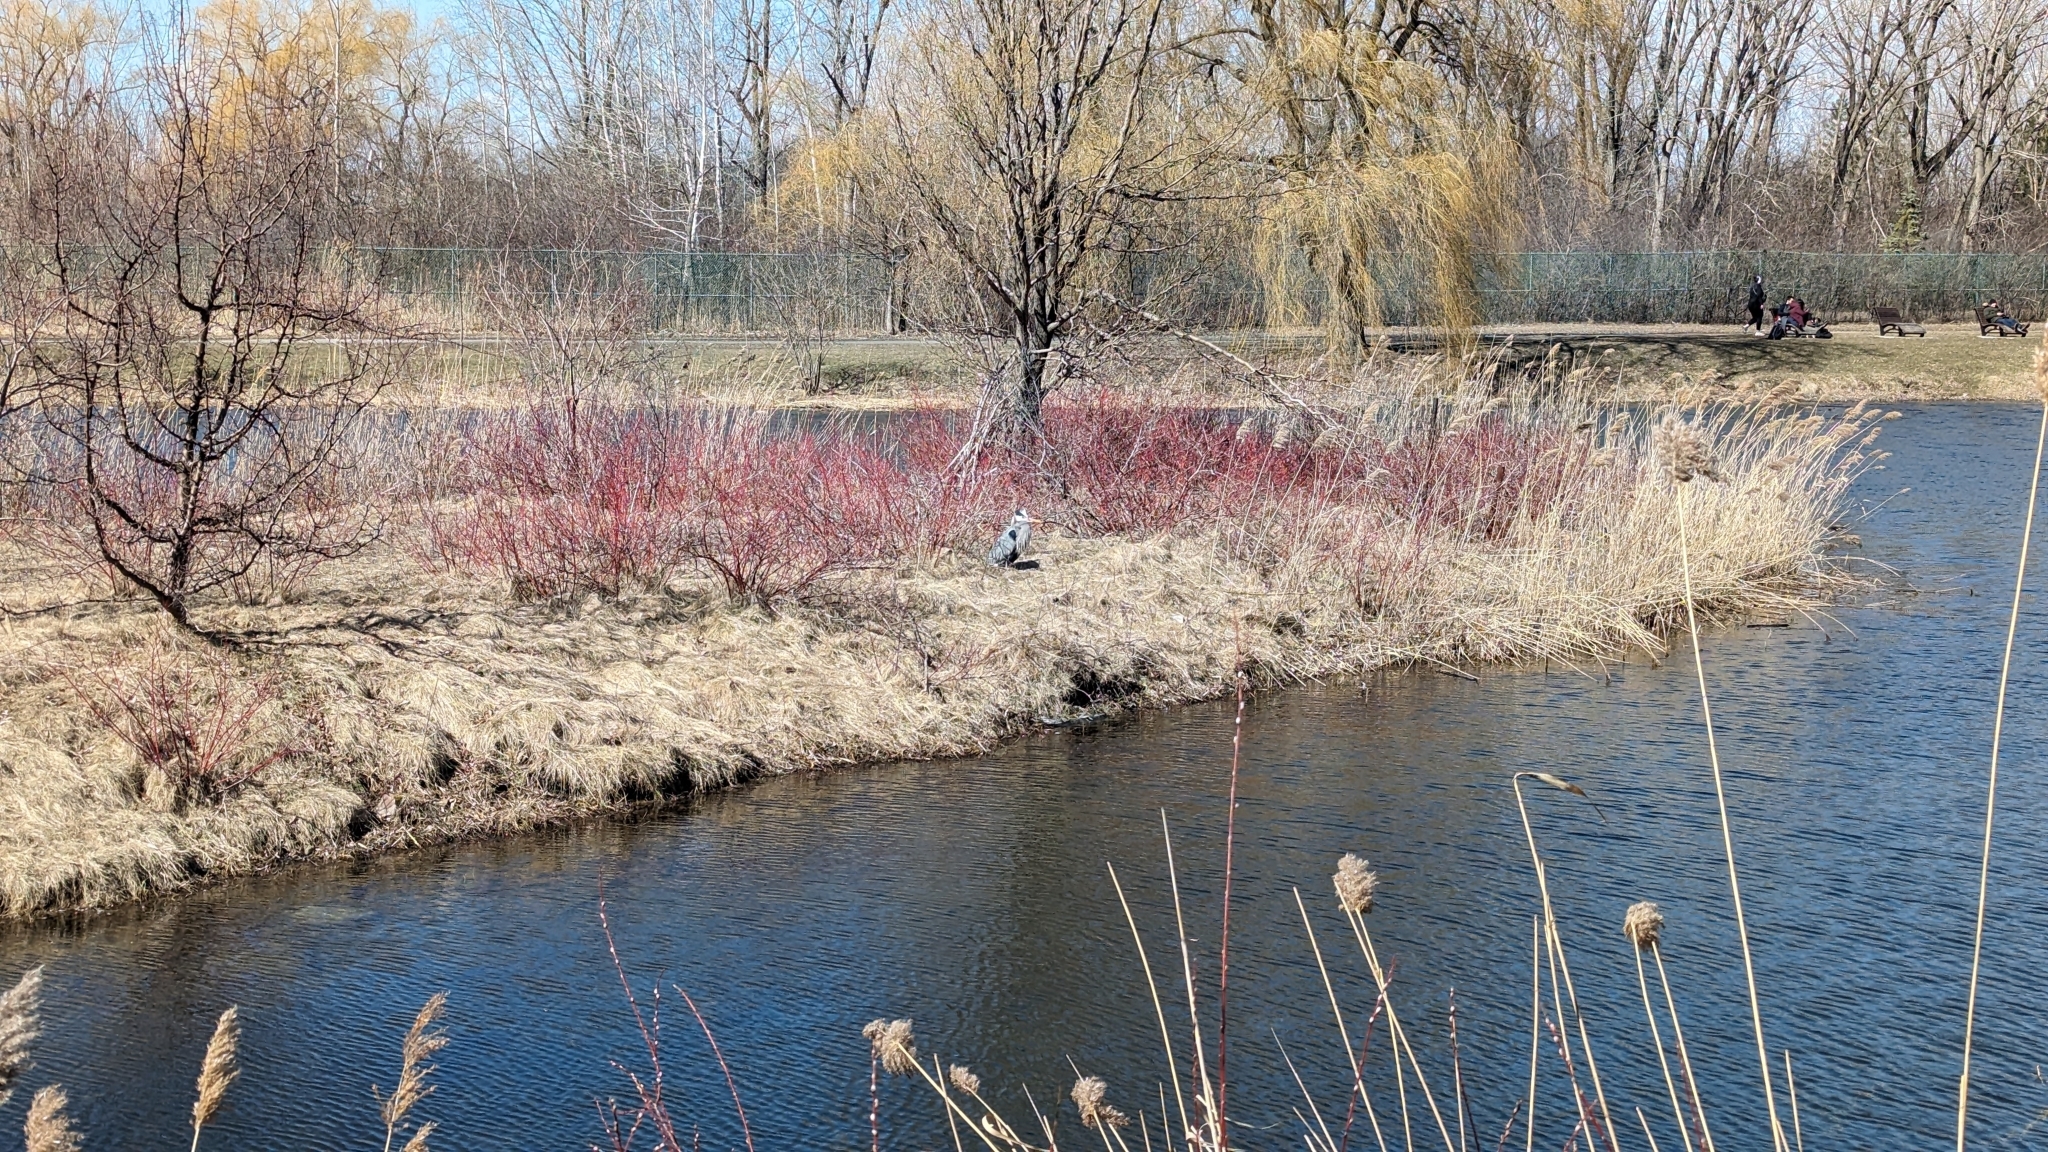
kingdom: Animalia
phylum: Chordata
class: Aves
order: Pelecaniformes
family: Ardeidae
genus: Ardea
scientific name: Ardea herodias
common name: Great blue heron
